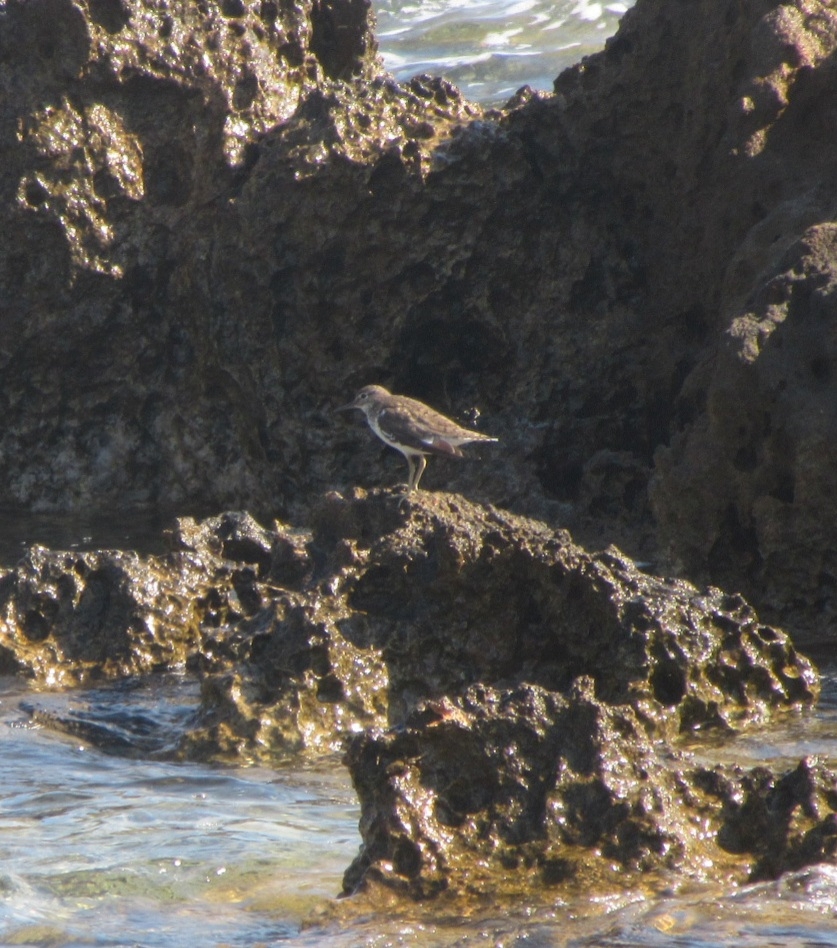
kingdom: Animalia
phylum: Chordata
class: Aves
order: Charadriiformes
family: Scolopacidae
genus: Actitis
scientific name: Actitis hypoleucos
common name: Common sandpiper
